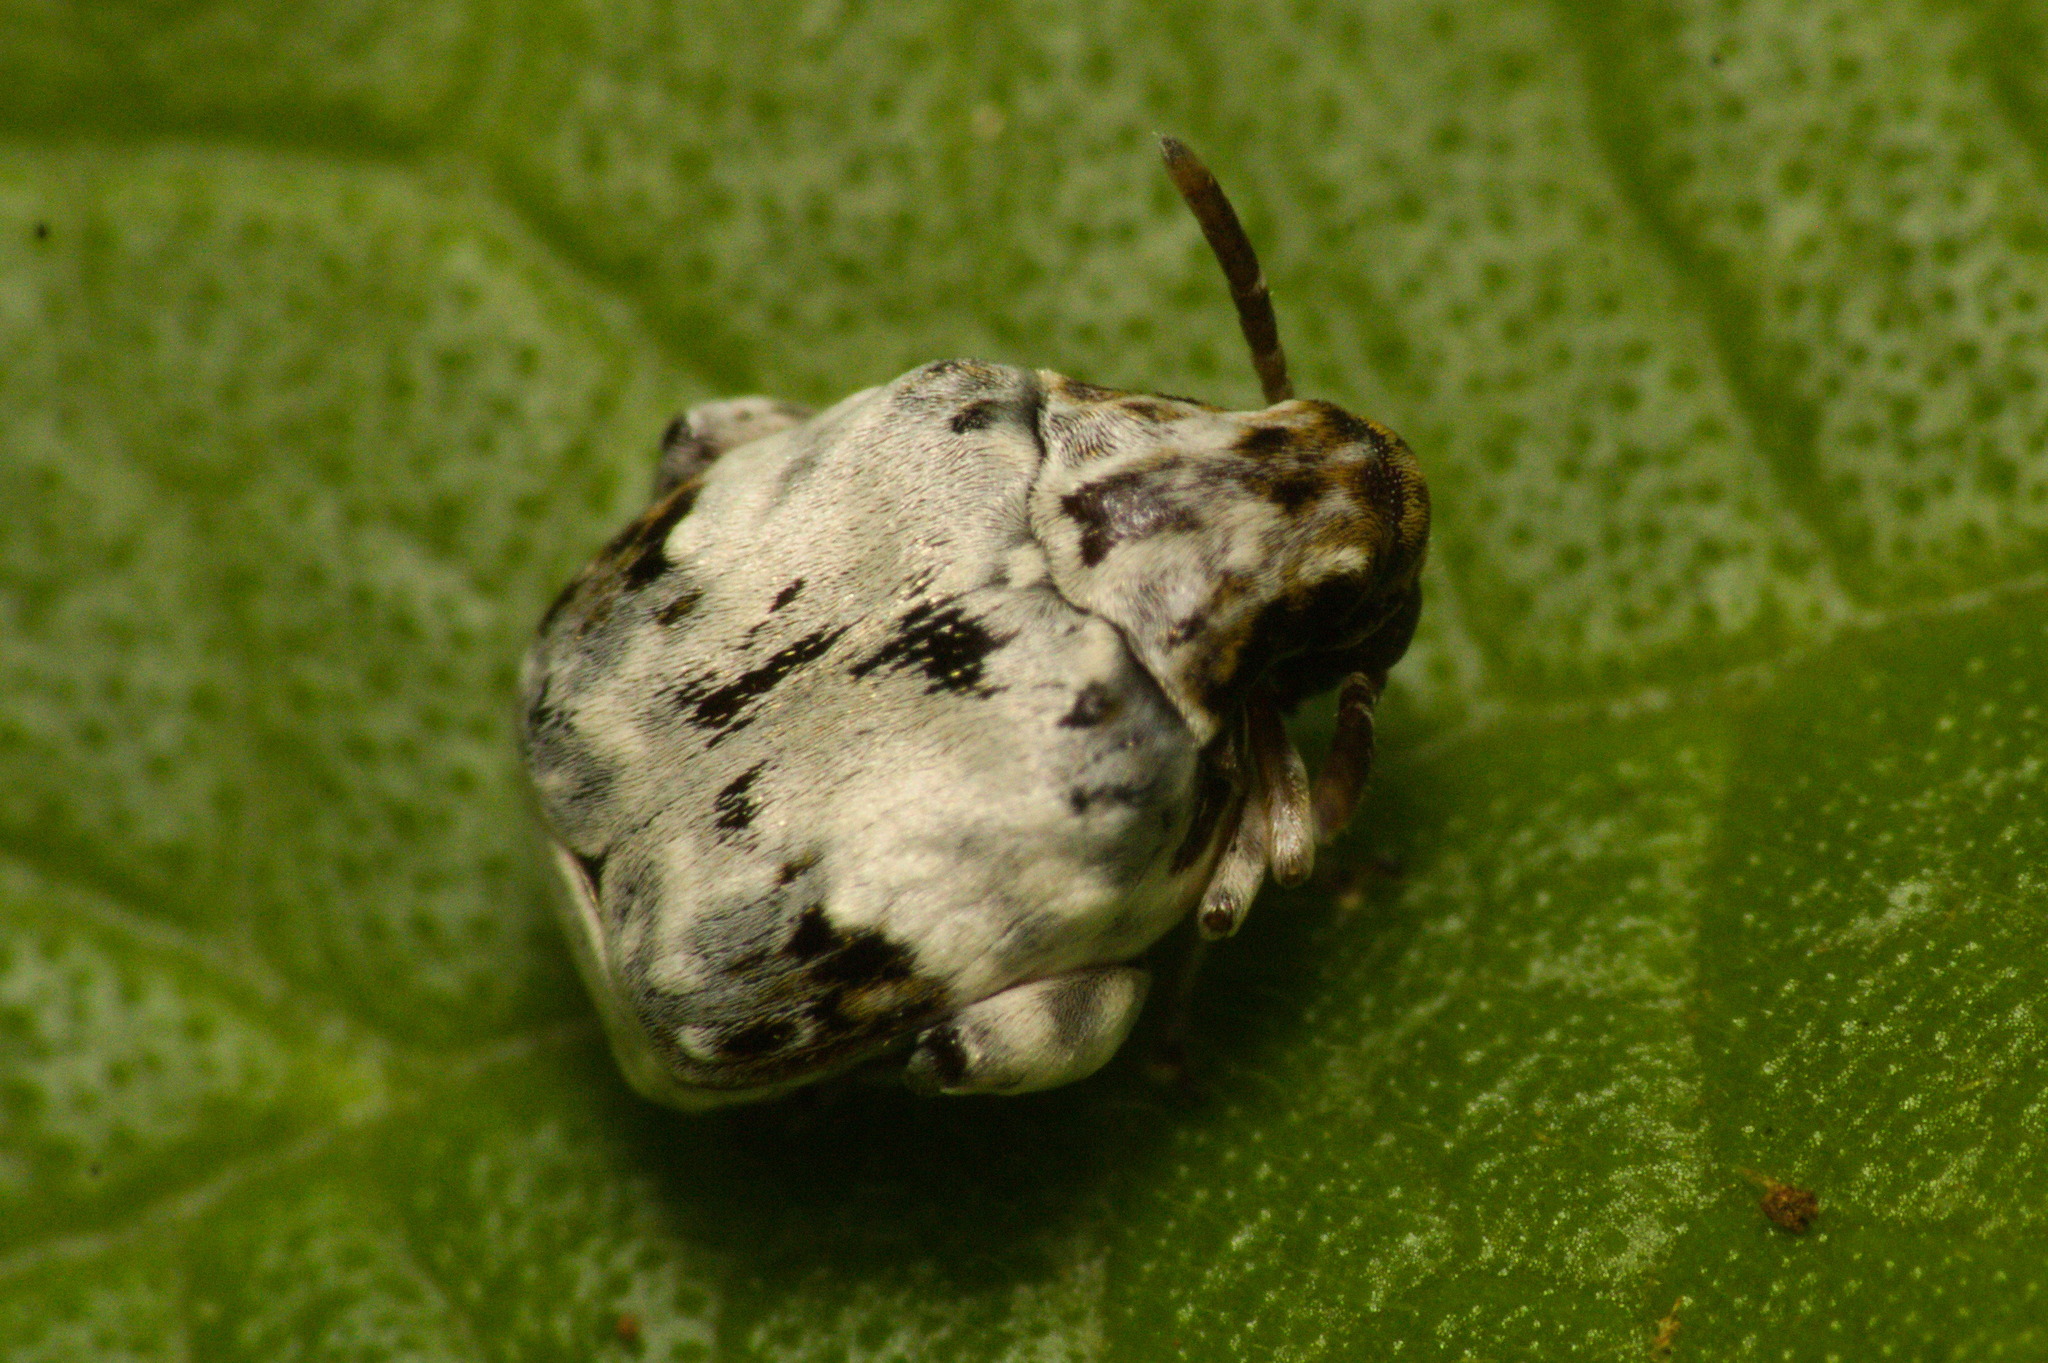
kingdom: Animalia
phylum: Arthropoda
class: Insecta
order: Coleoptera
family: Chrysomelidae
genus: Caryedes
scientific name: Caryedes helvinus
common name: Bruchid beetle
